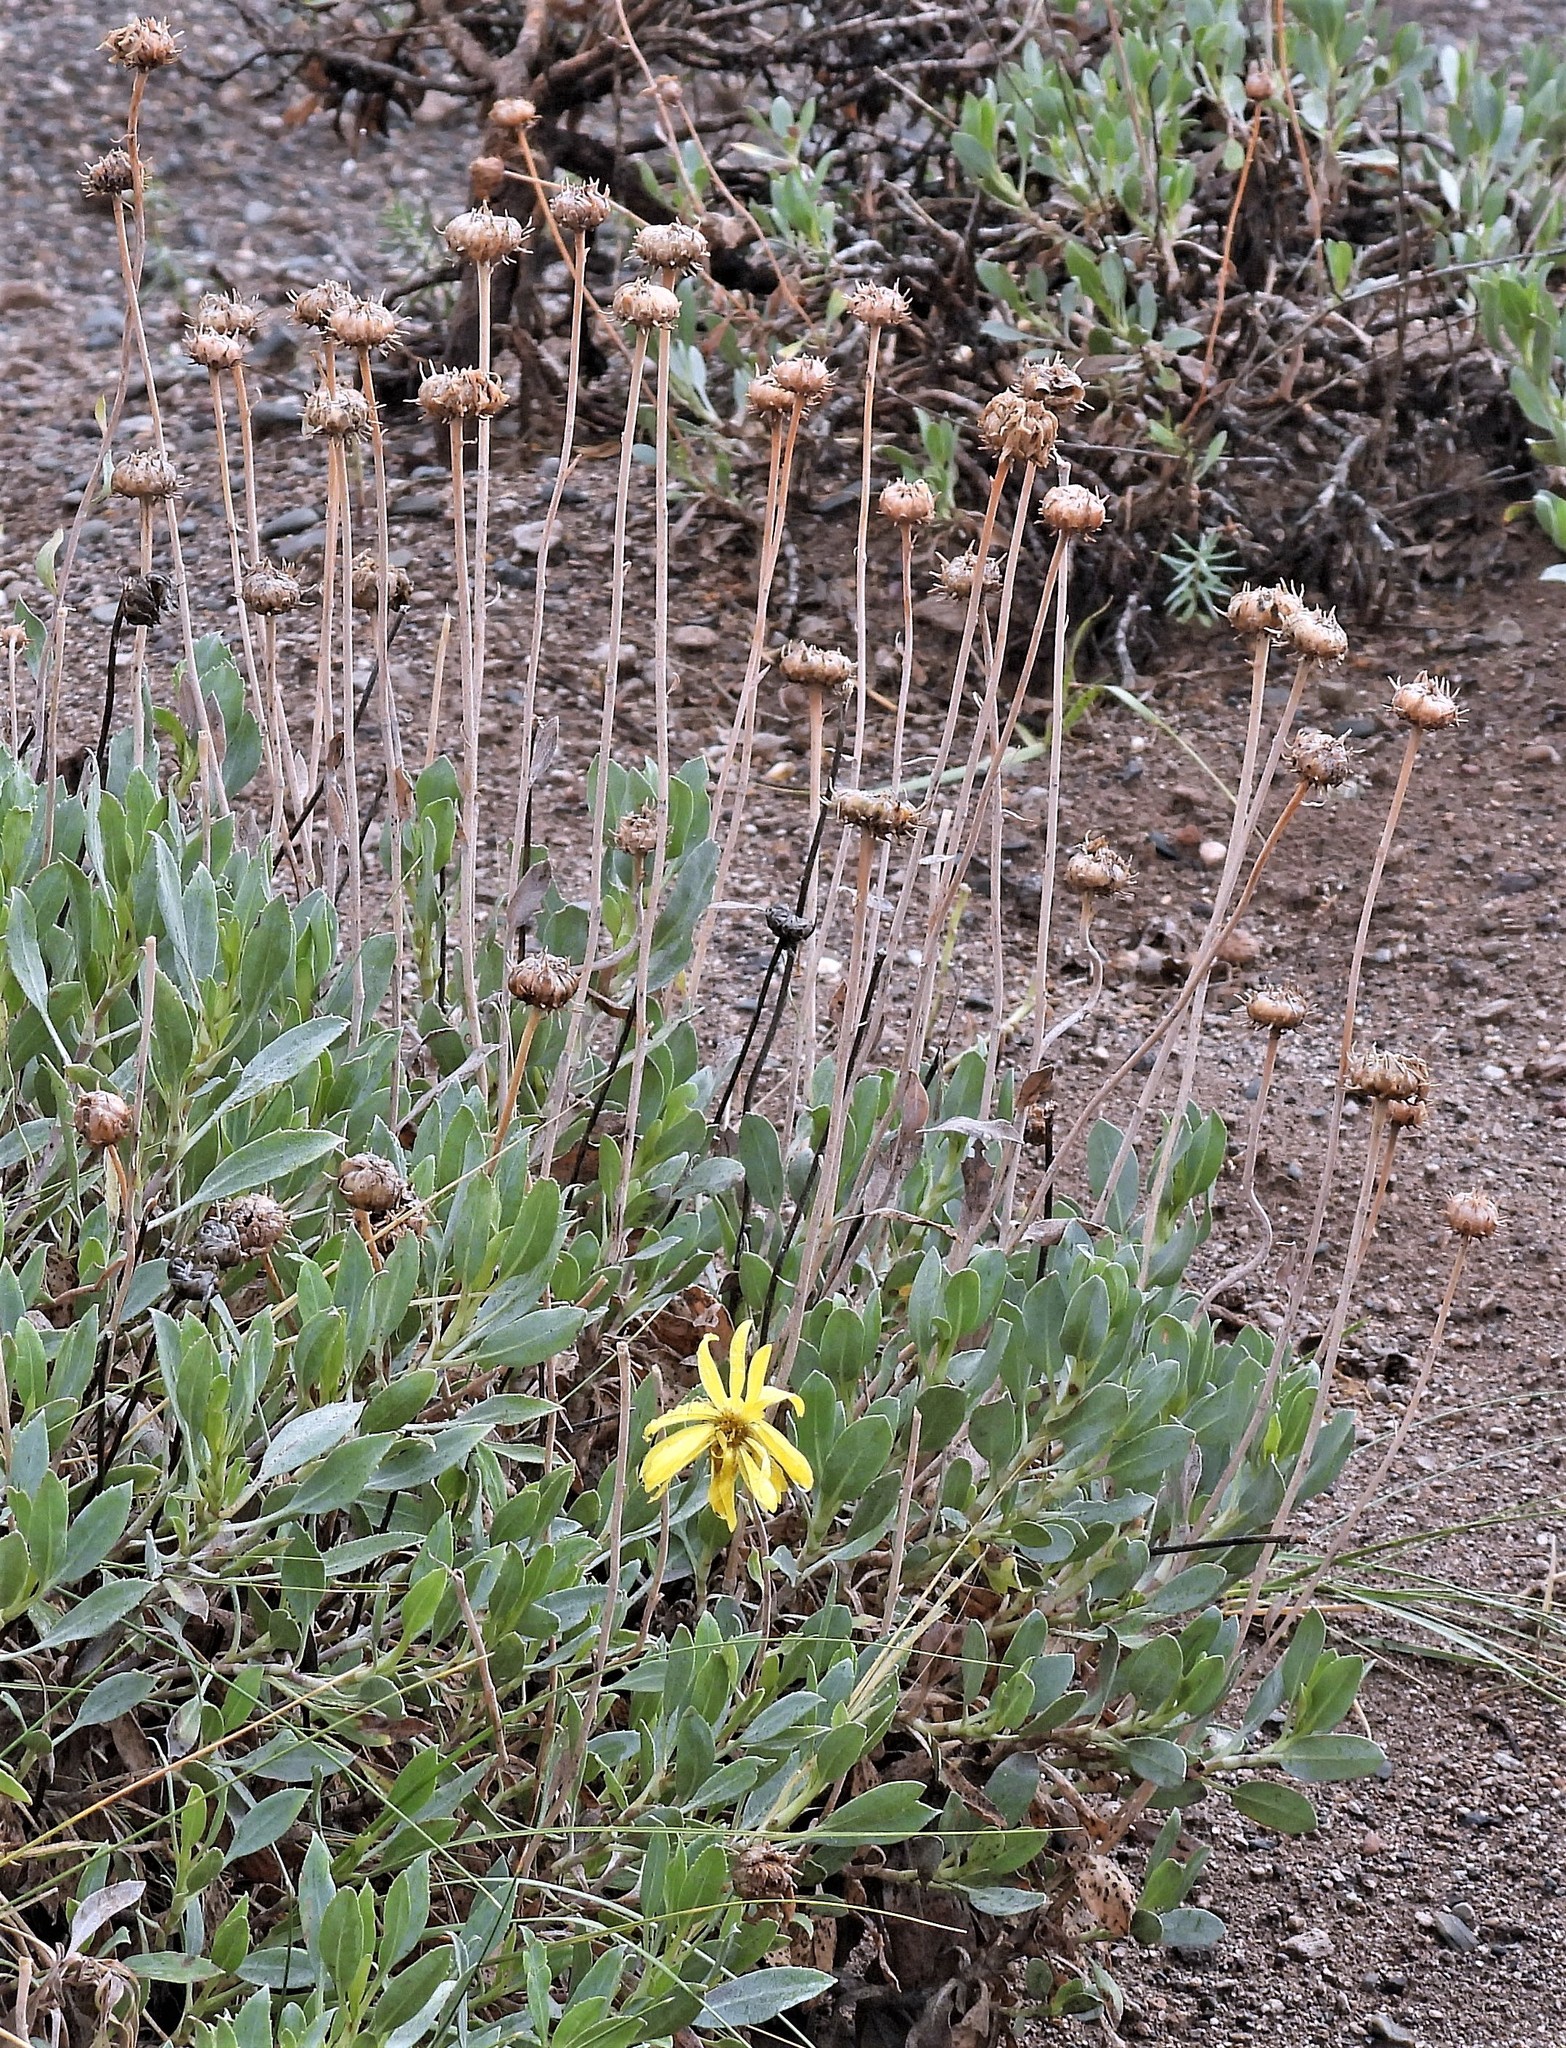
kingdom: Plantae
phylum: Tracheophyta
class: Magnoliopsida
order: Asterales
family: Asteraceae
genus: Grindelia
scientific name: Grindelia chiloensis
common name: Shrubby gumweed
